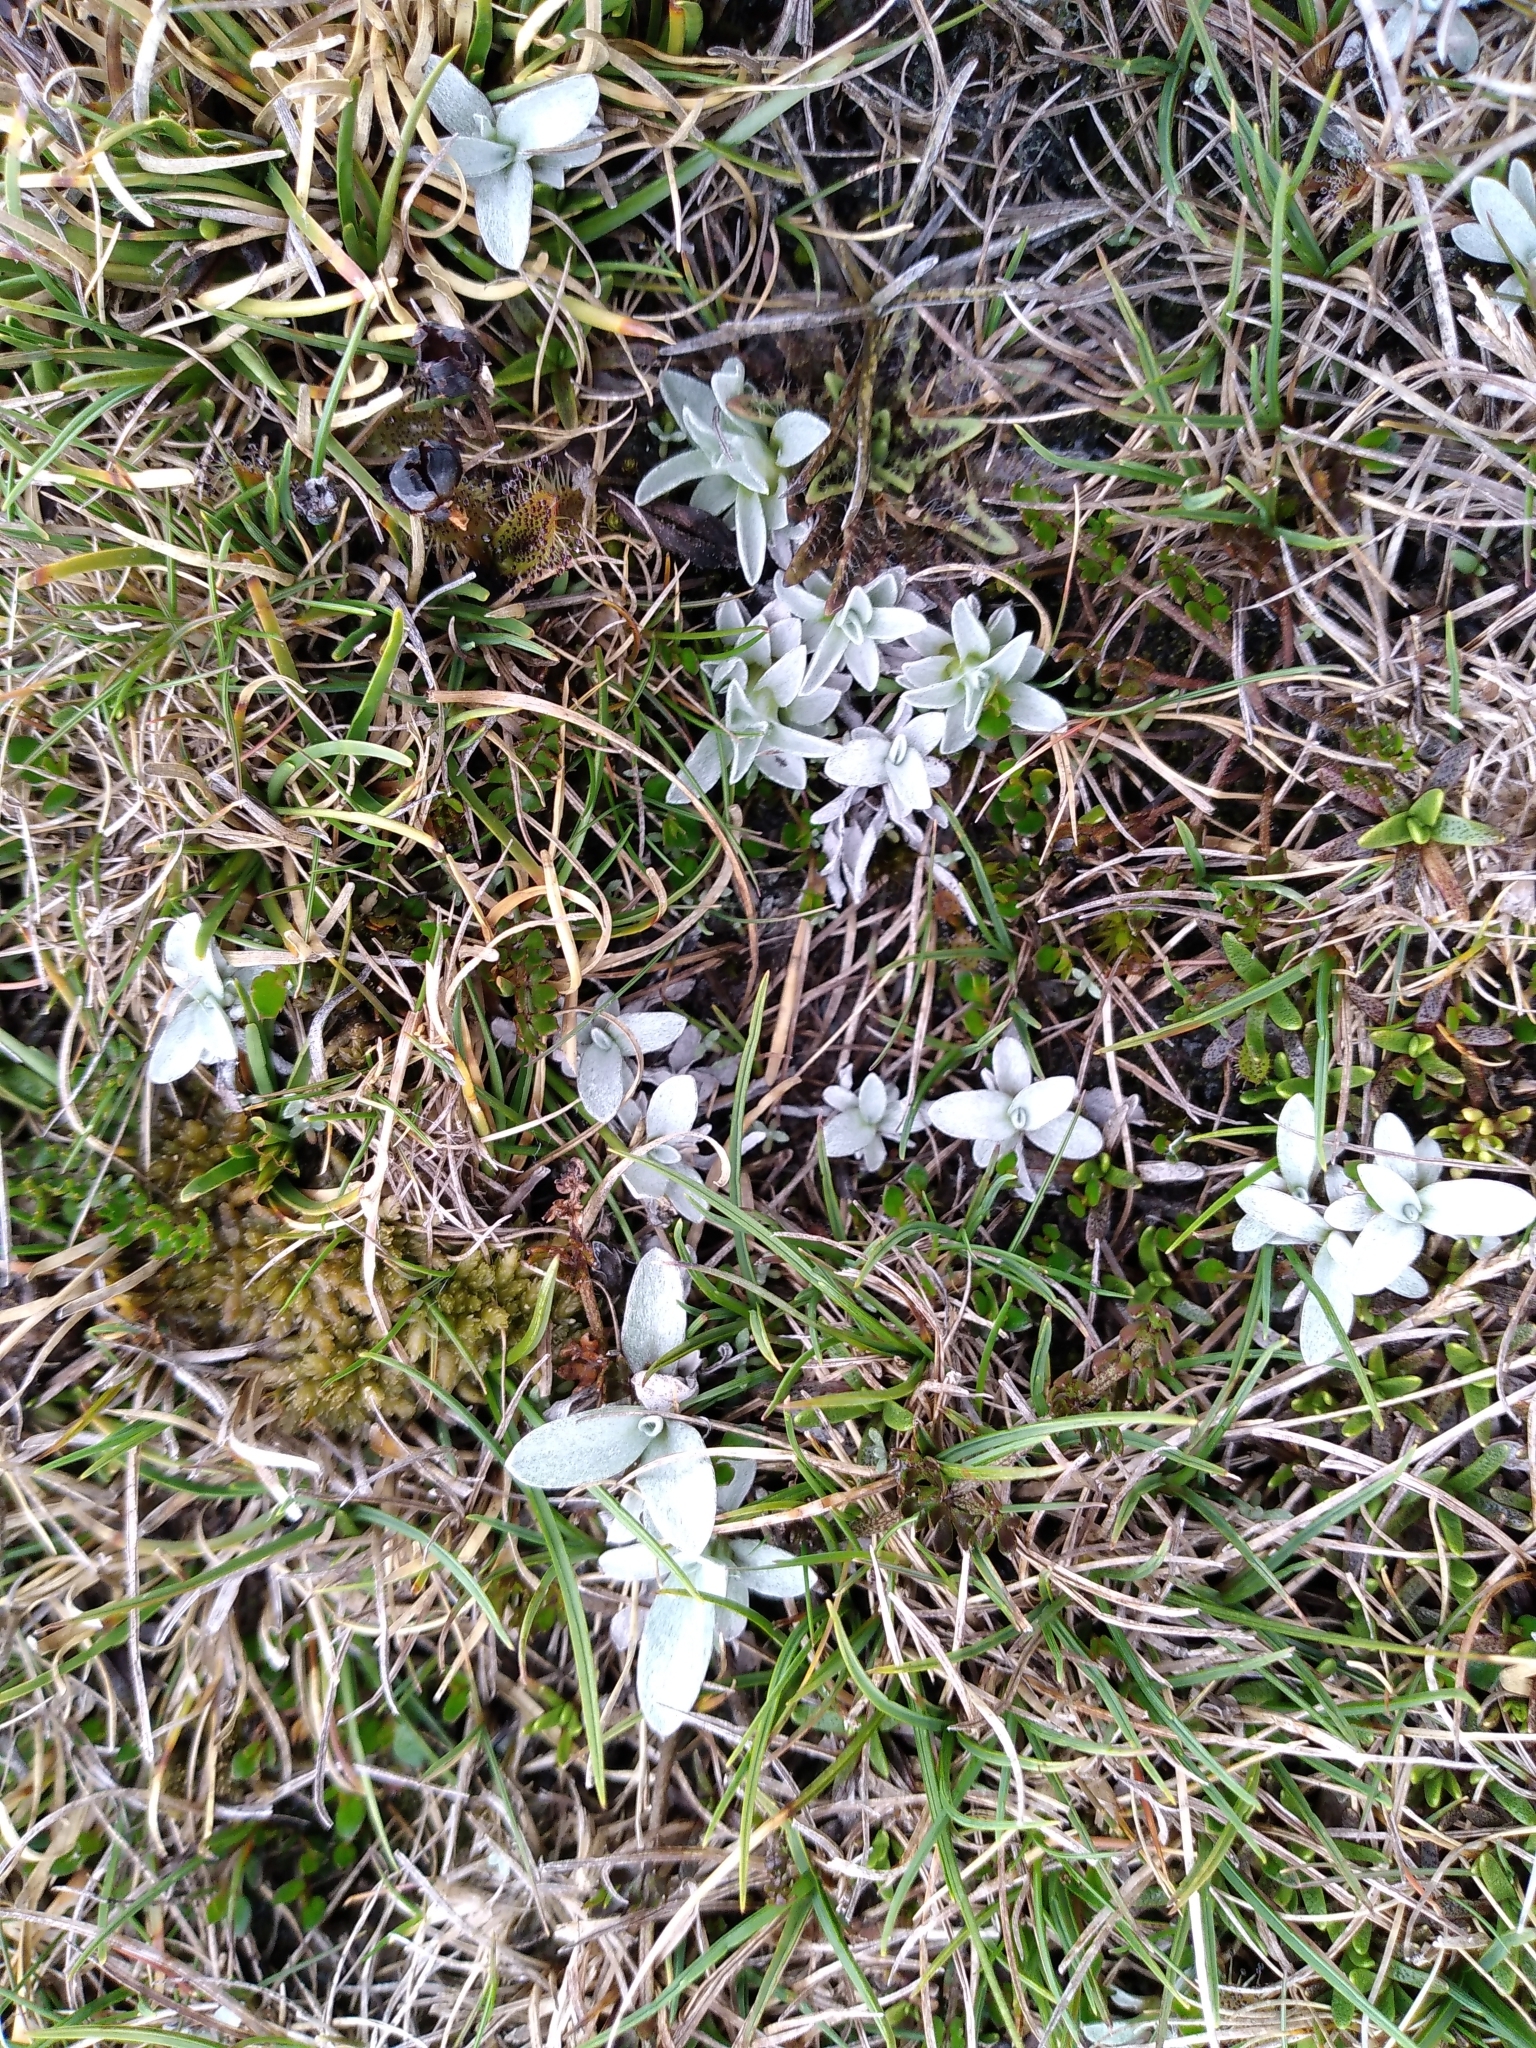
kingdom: Plantae
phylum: Tracheophyta
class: Magnoliopsida
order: Asterales
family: Asteraceae
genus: Euchiton
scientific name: Euchiton traversii
